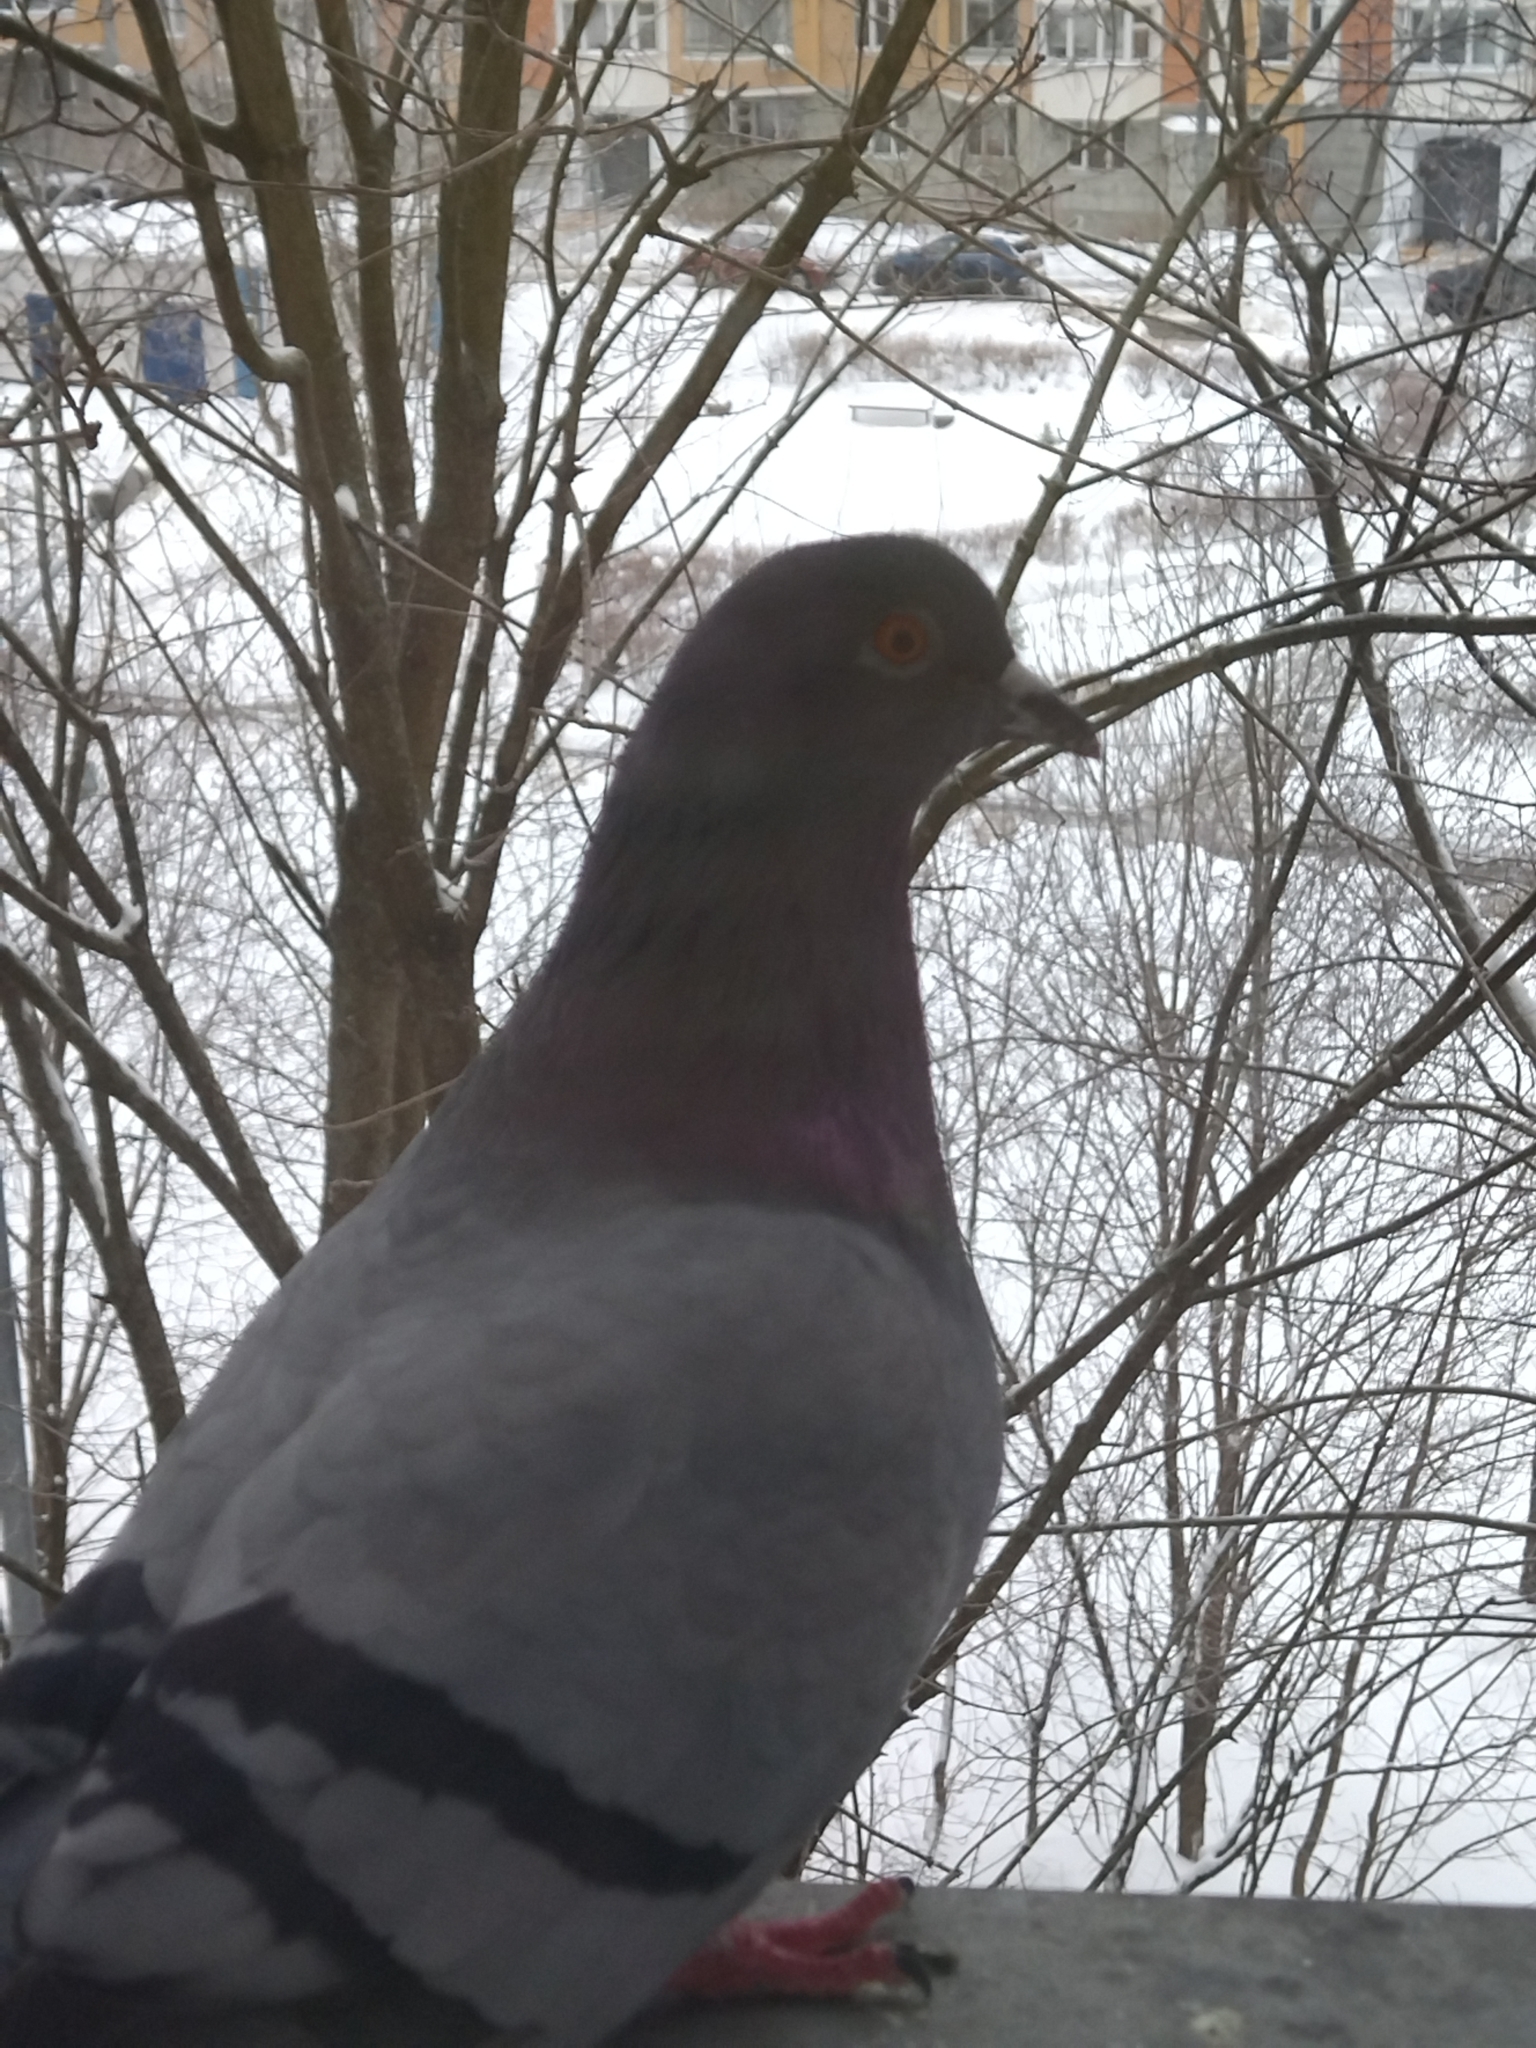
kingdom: Animalia
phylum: Chordata
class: Aves
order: Columbiformes
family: Columbidae
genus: Columba
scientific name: Columba livia
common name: Rock pigeon
